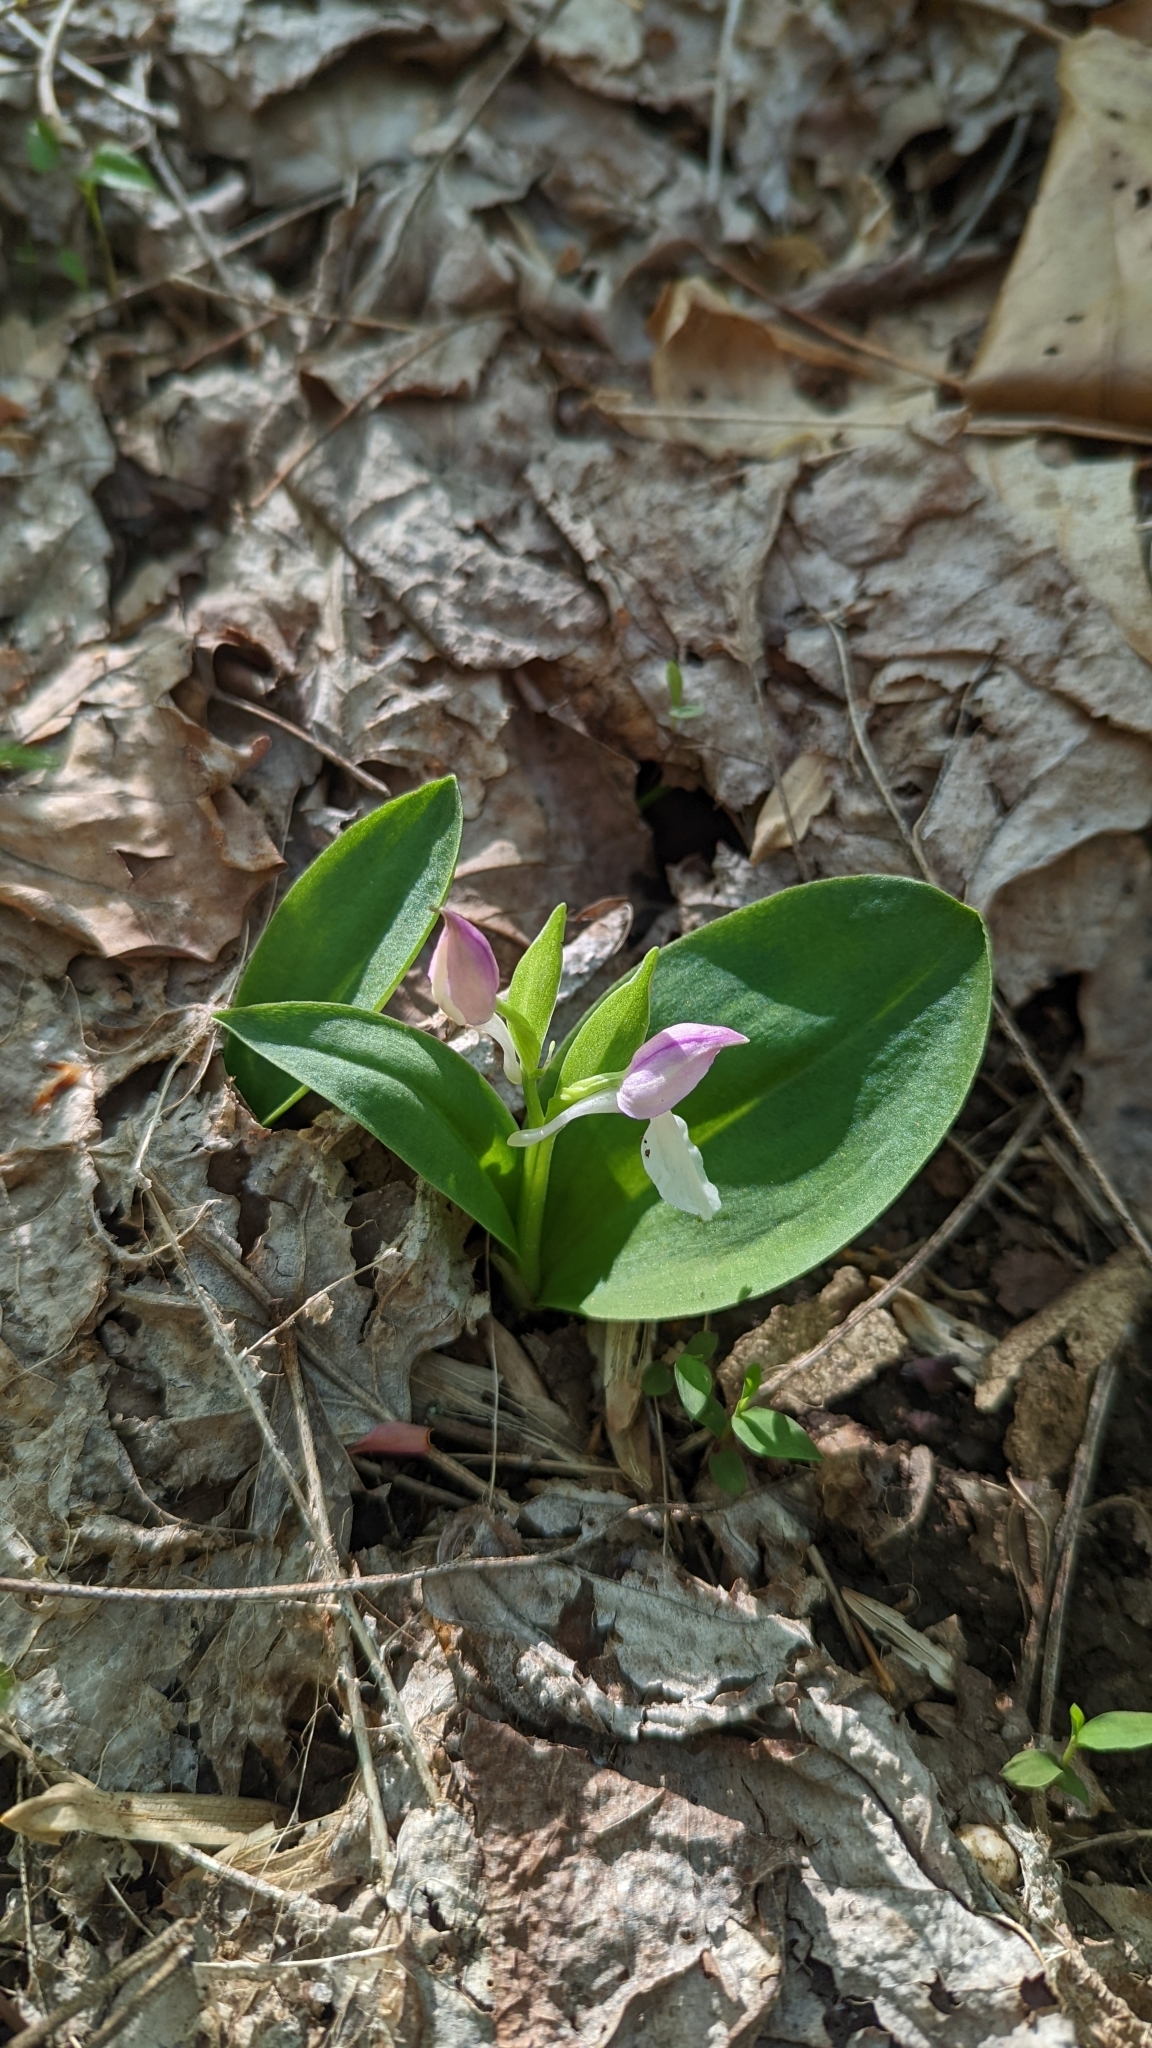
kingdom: Plantae
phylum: Tracheophyta
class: Liliopsida
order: Asparagales
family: Orchidaceae
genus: Galearis
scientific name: Galearis spectabilis
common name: Purple-hooded orchis
